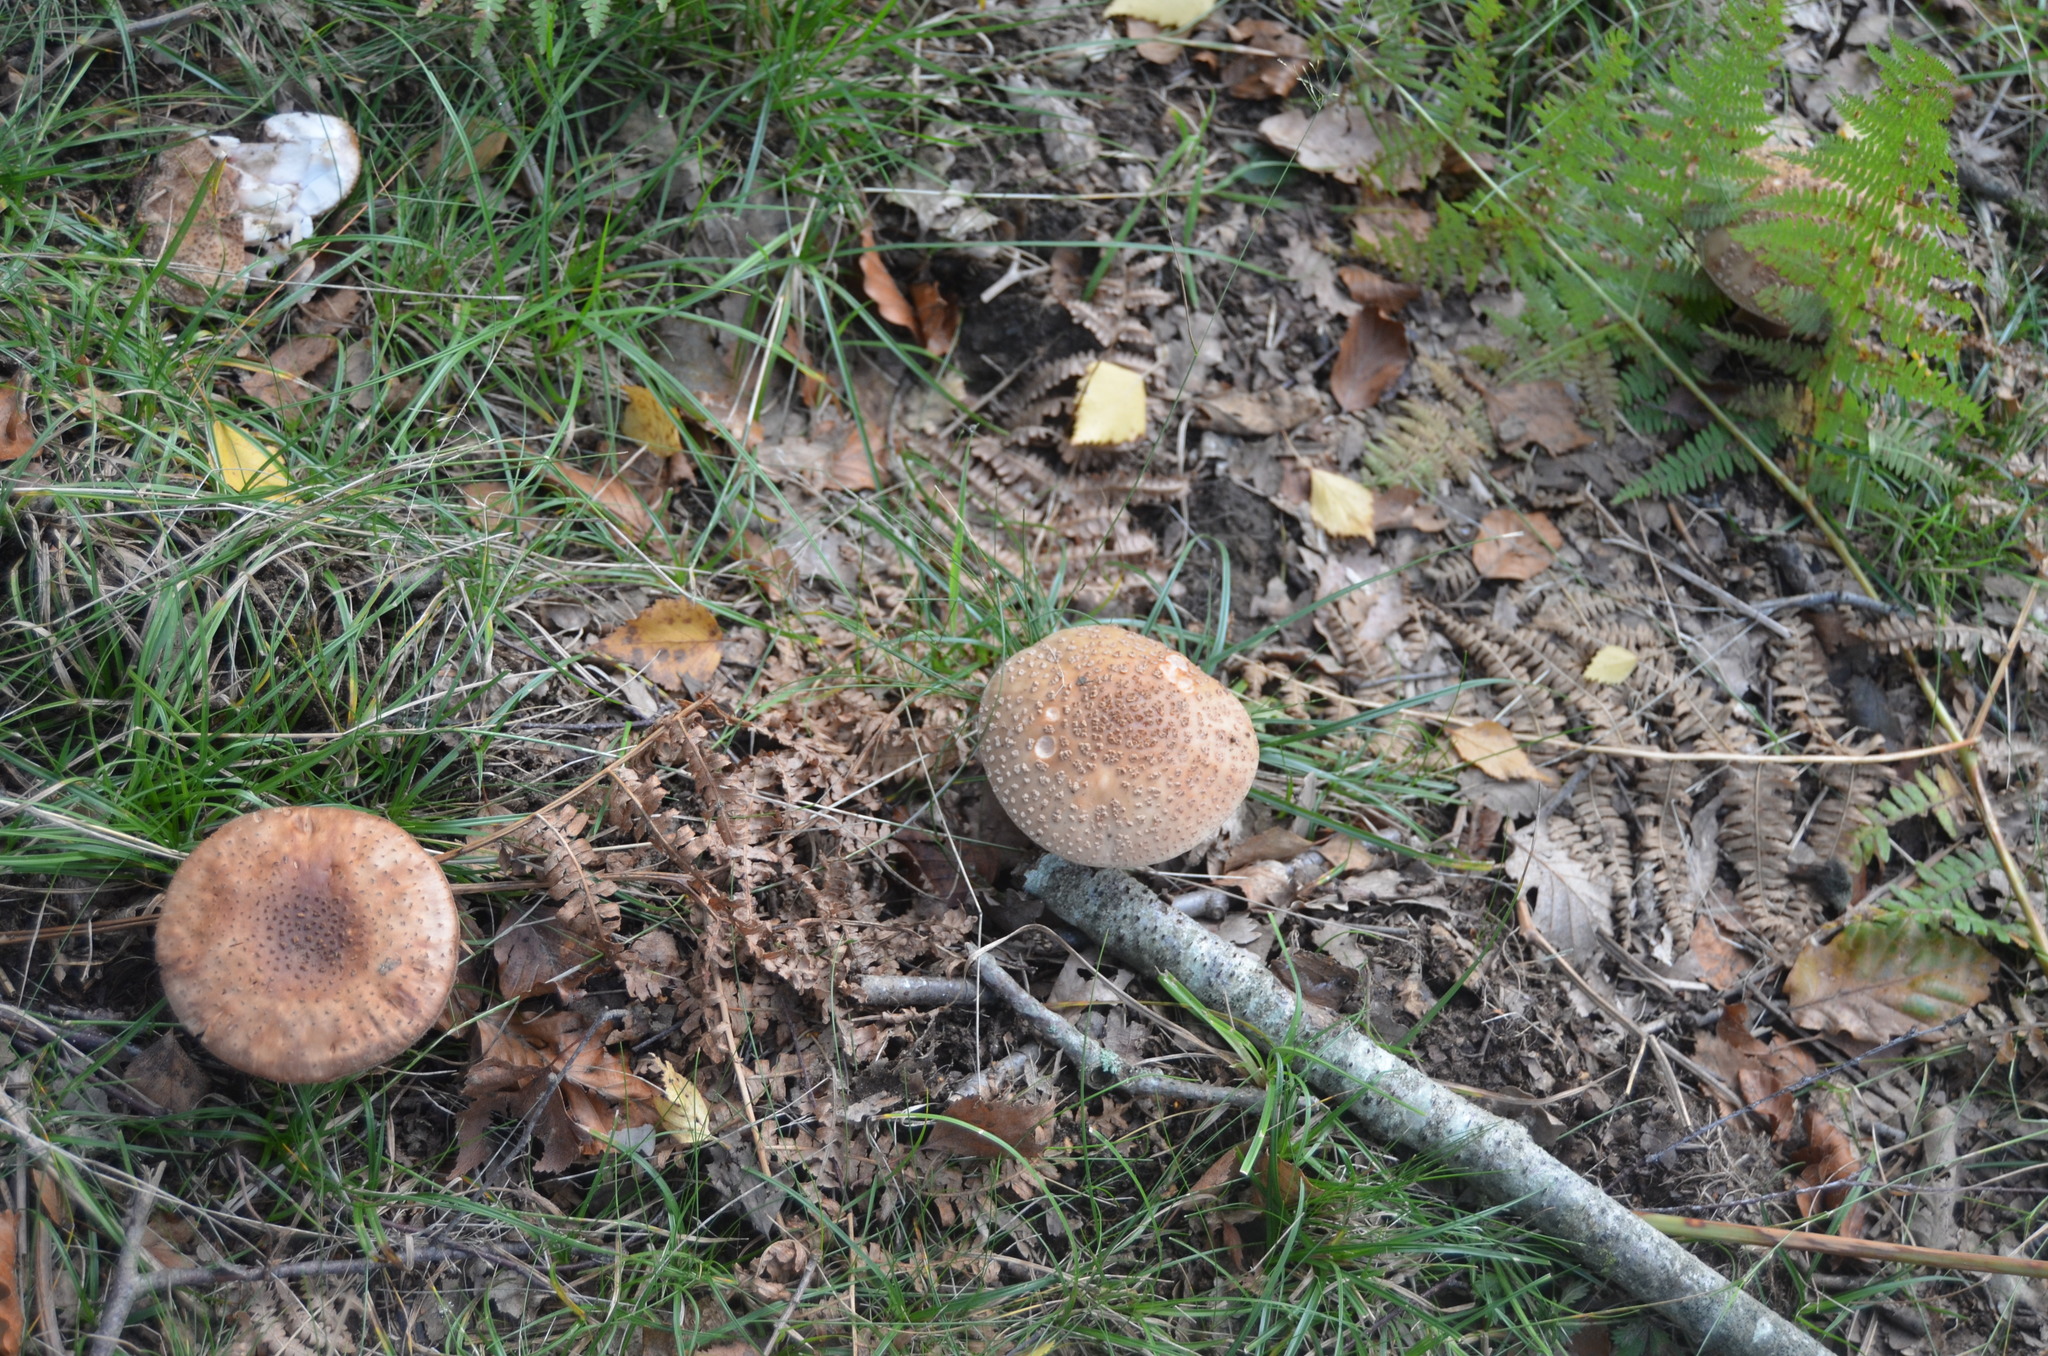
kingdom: Fungi
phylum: Basidiomycota
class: Agaricomycetes
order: Agaricales
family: Amanitaceae
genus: Amanita
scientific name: Amanita rubescens
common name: Blusher
